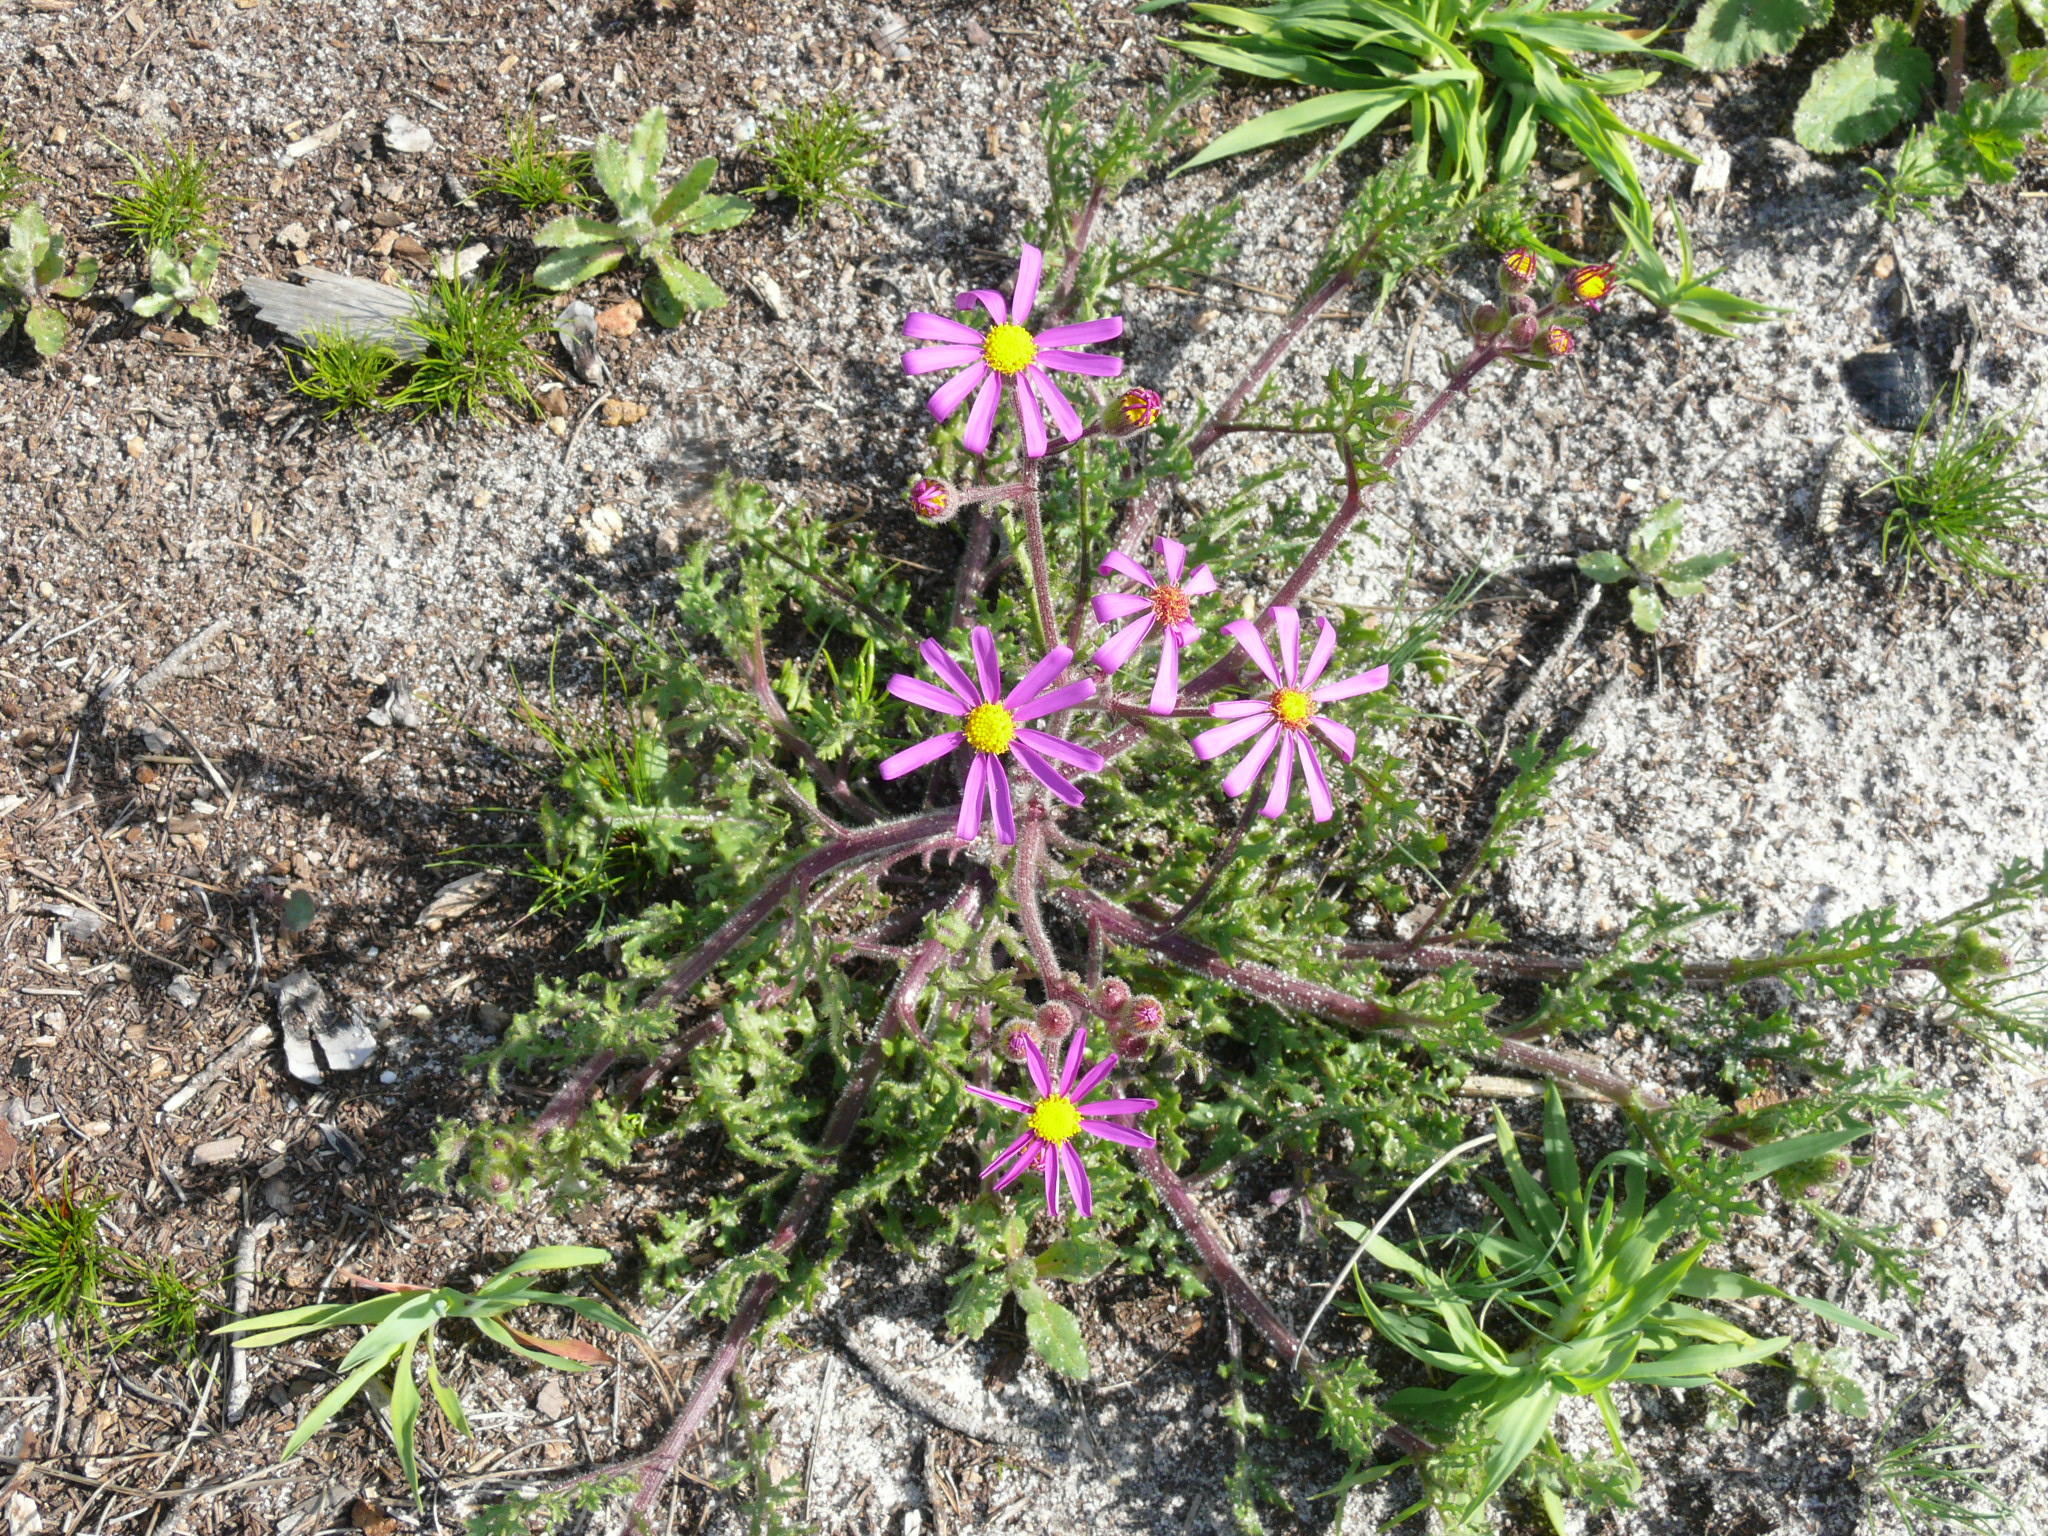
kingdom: Plantae
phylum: Tracheophyta
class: Magnoliopsida
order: Asterales
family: Asteraceae
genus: Senecio
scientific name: Senecio arenarius
